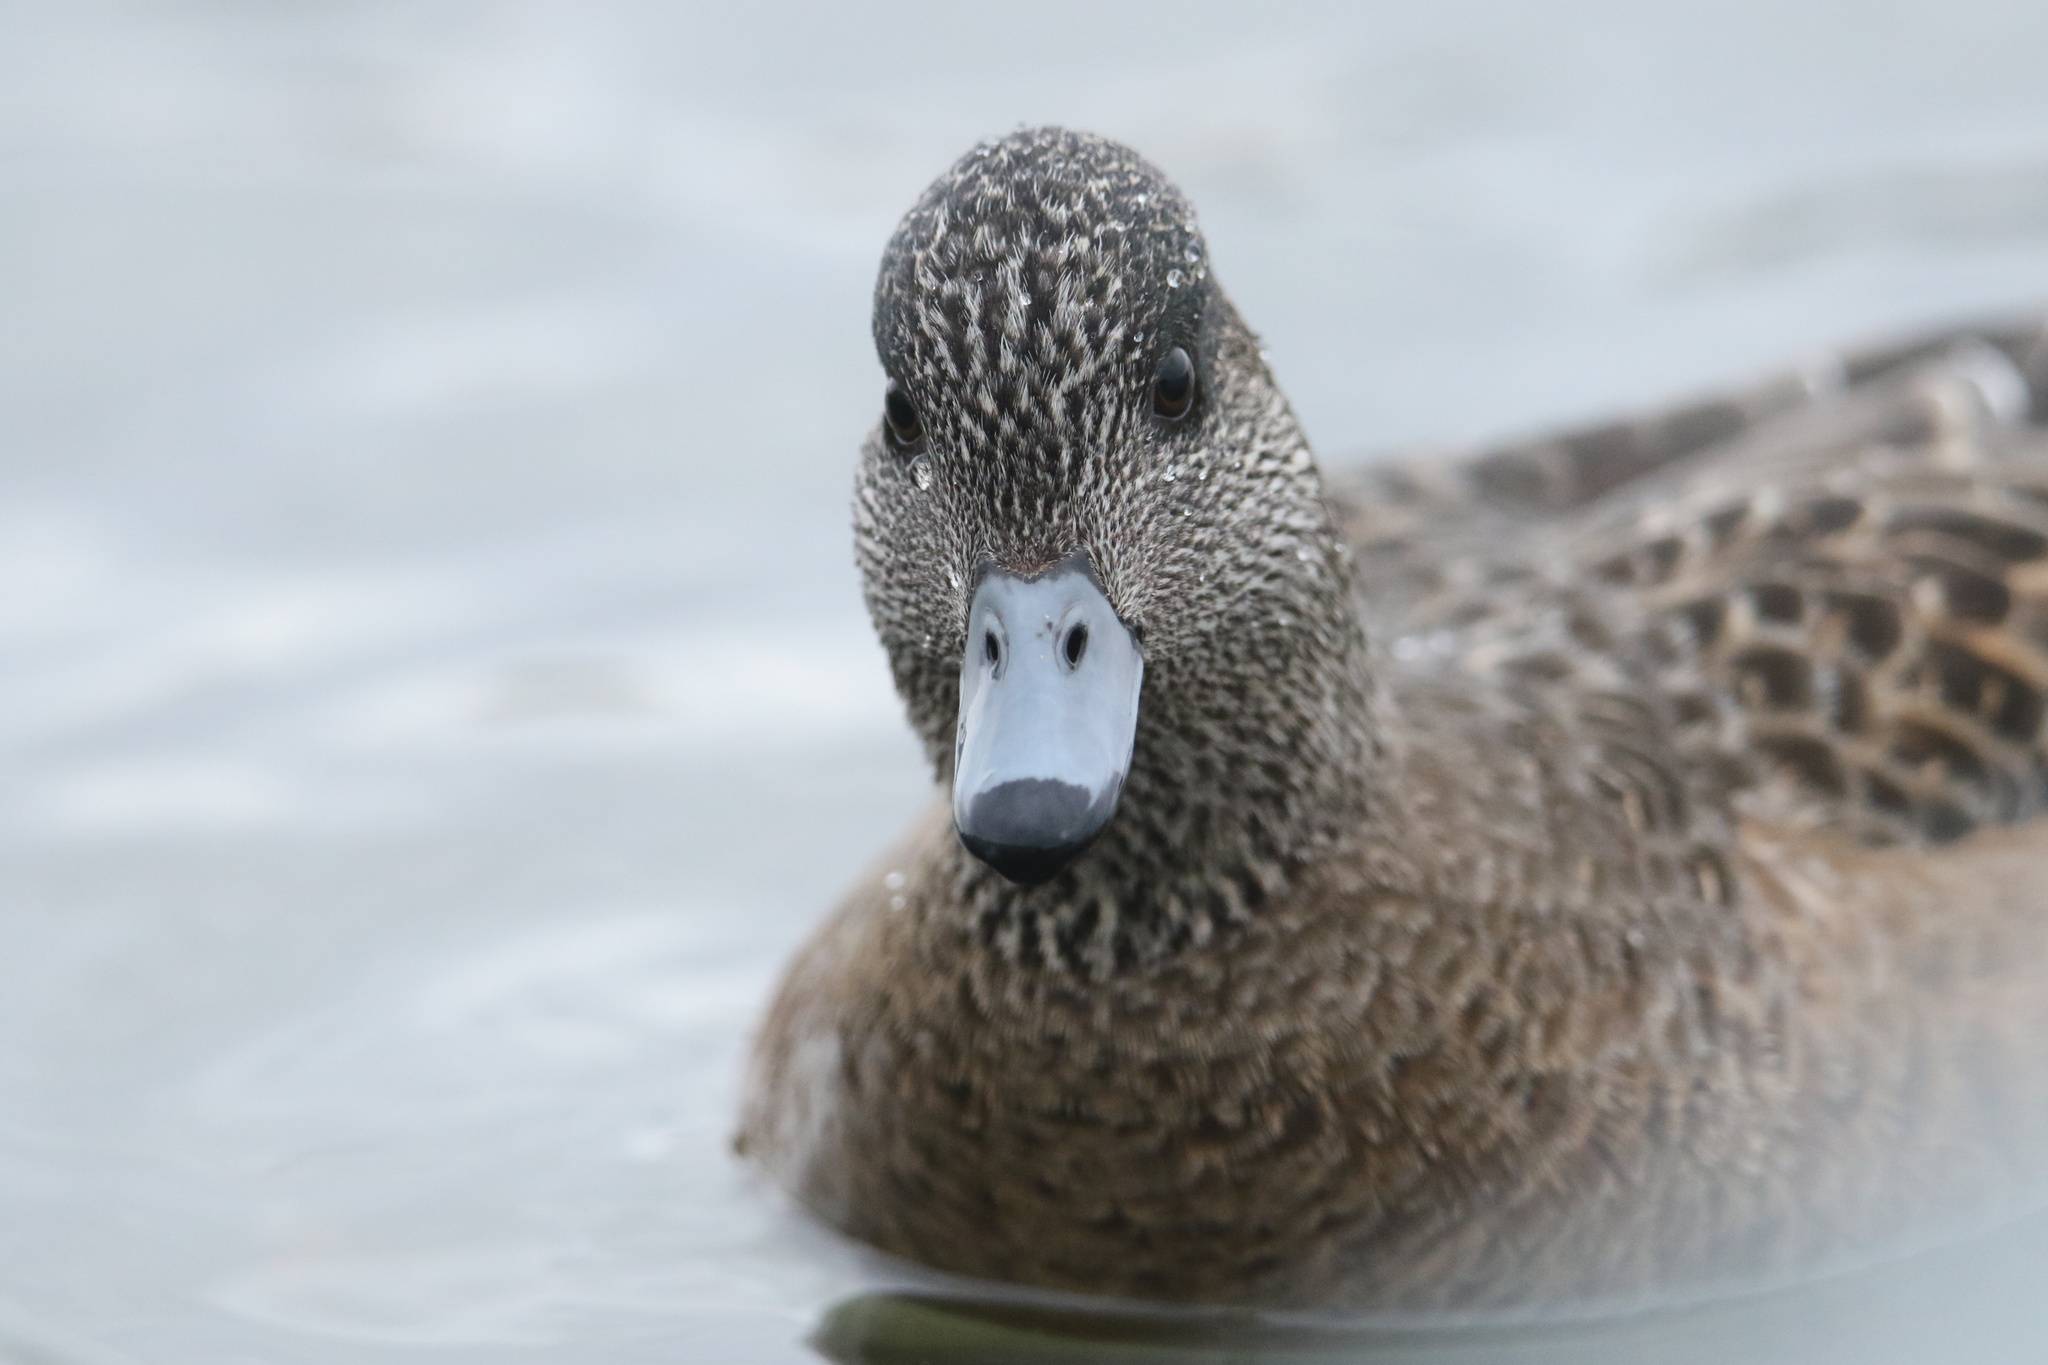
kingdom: Animalia
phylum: Chordata
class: Aves
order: Anseriformes
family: Anatidae
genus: Mareca
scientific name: Mareca americana
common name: American wigeon
